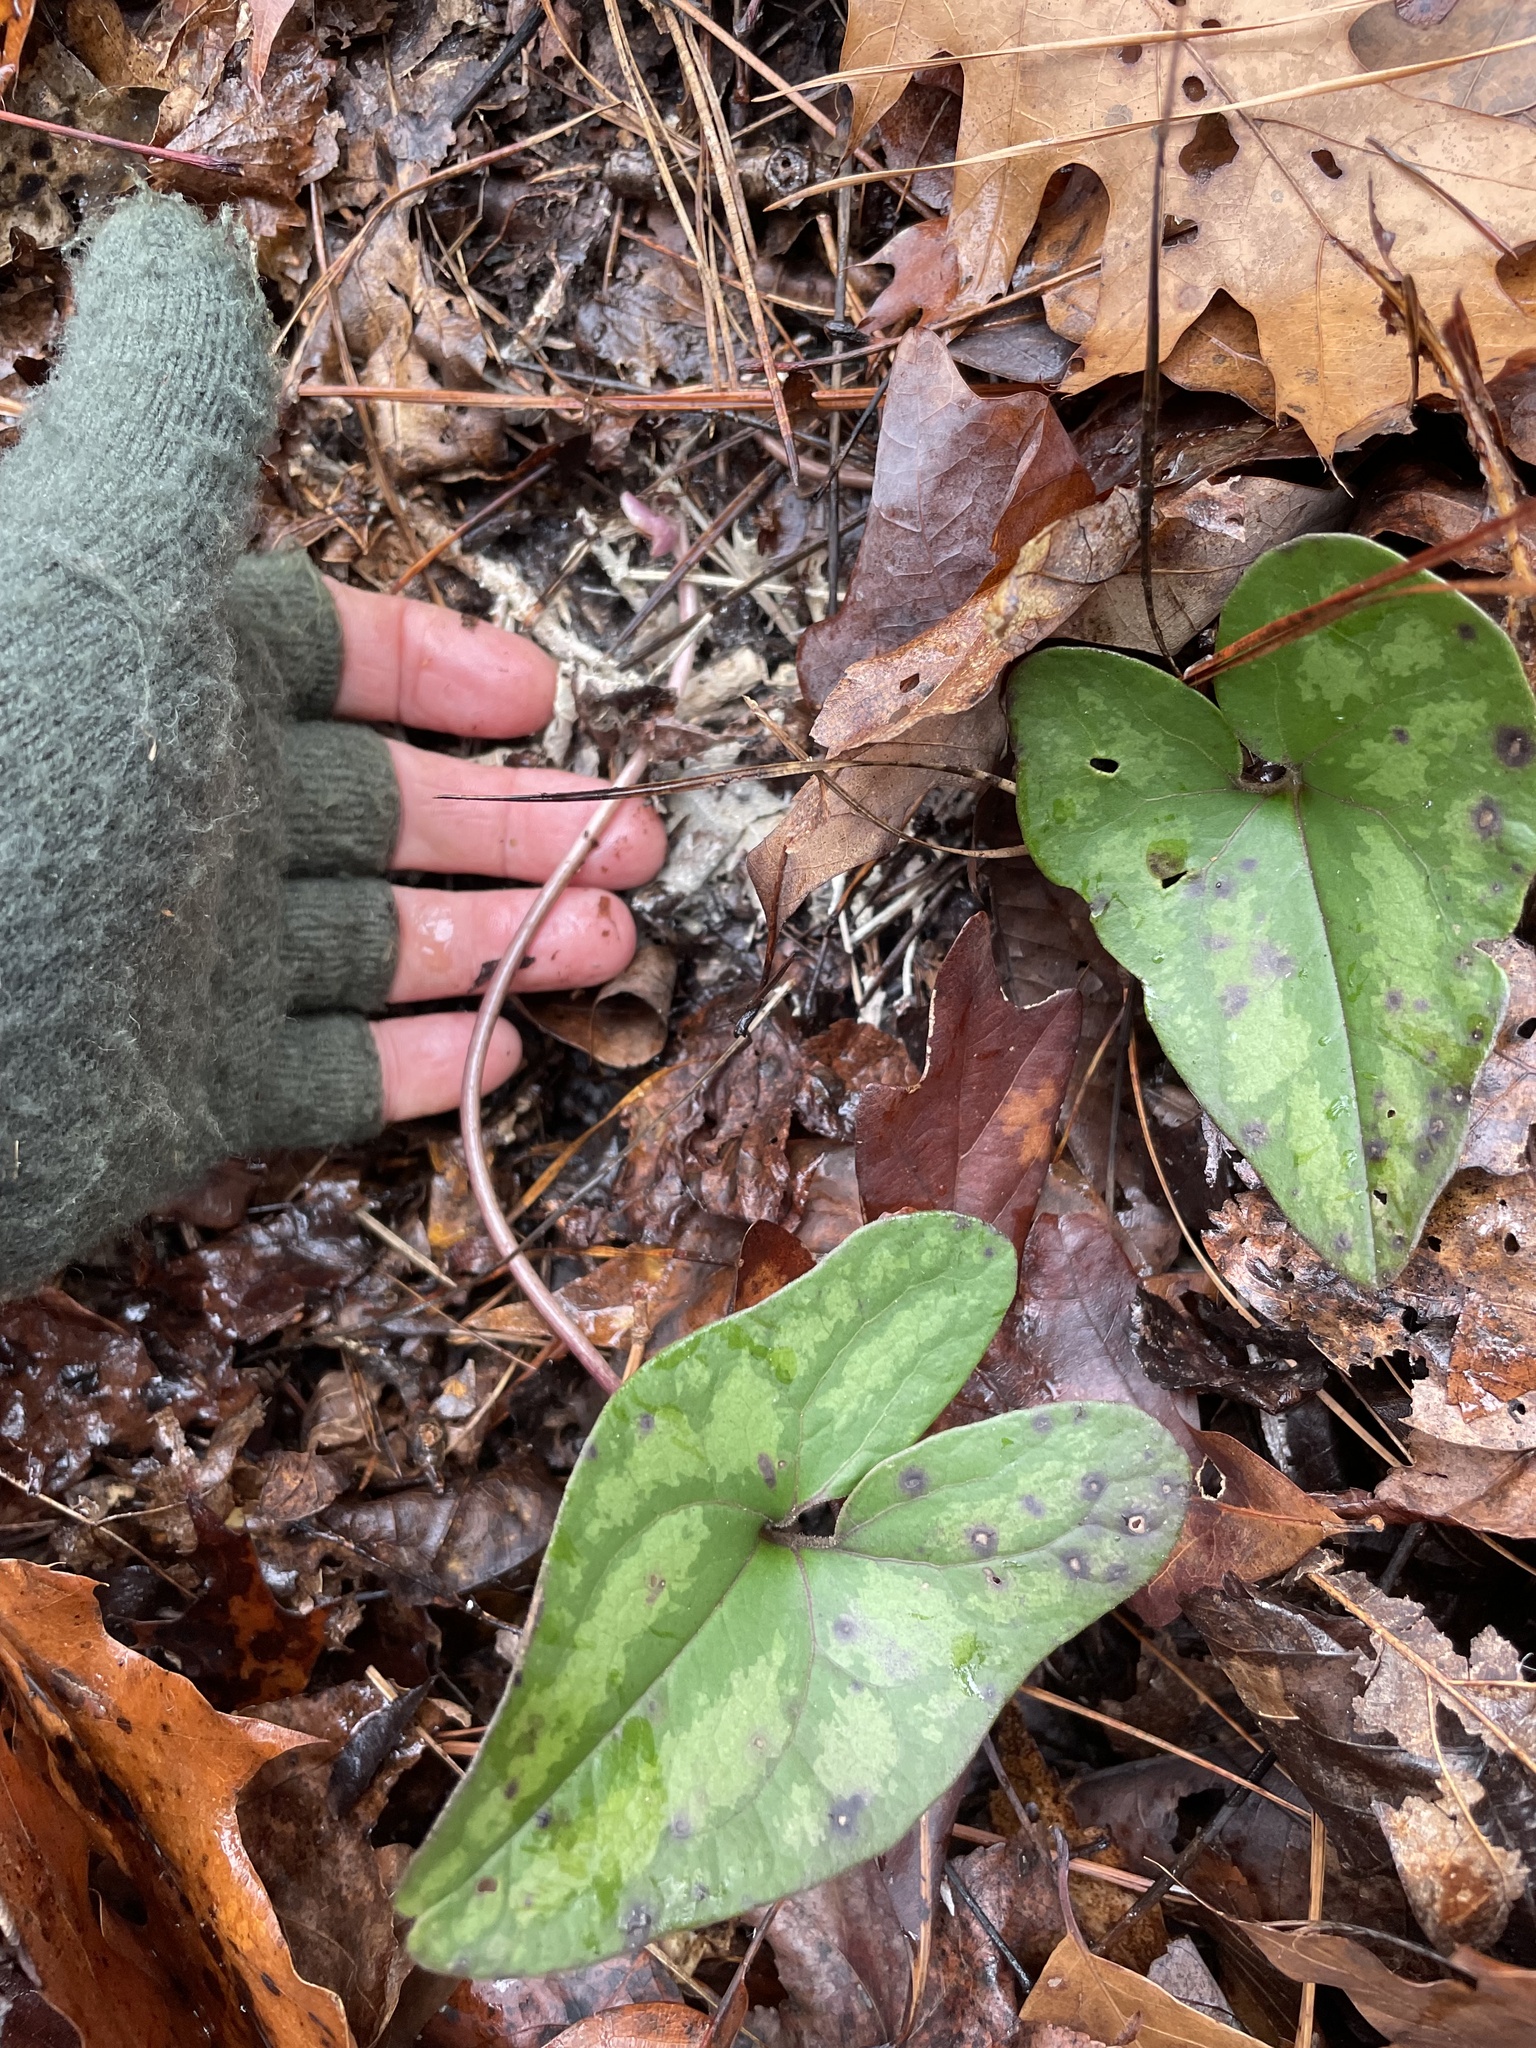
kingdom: Plantae
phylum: Tracheophyta
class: Magnoliopsida
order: Piperales
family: Aristolochiaceae
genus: Hexastylis
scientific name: Hexastylis arifolia
